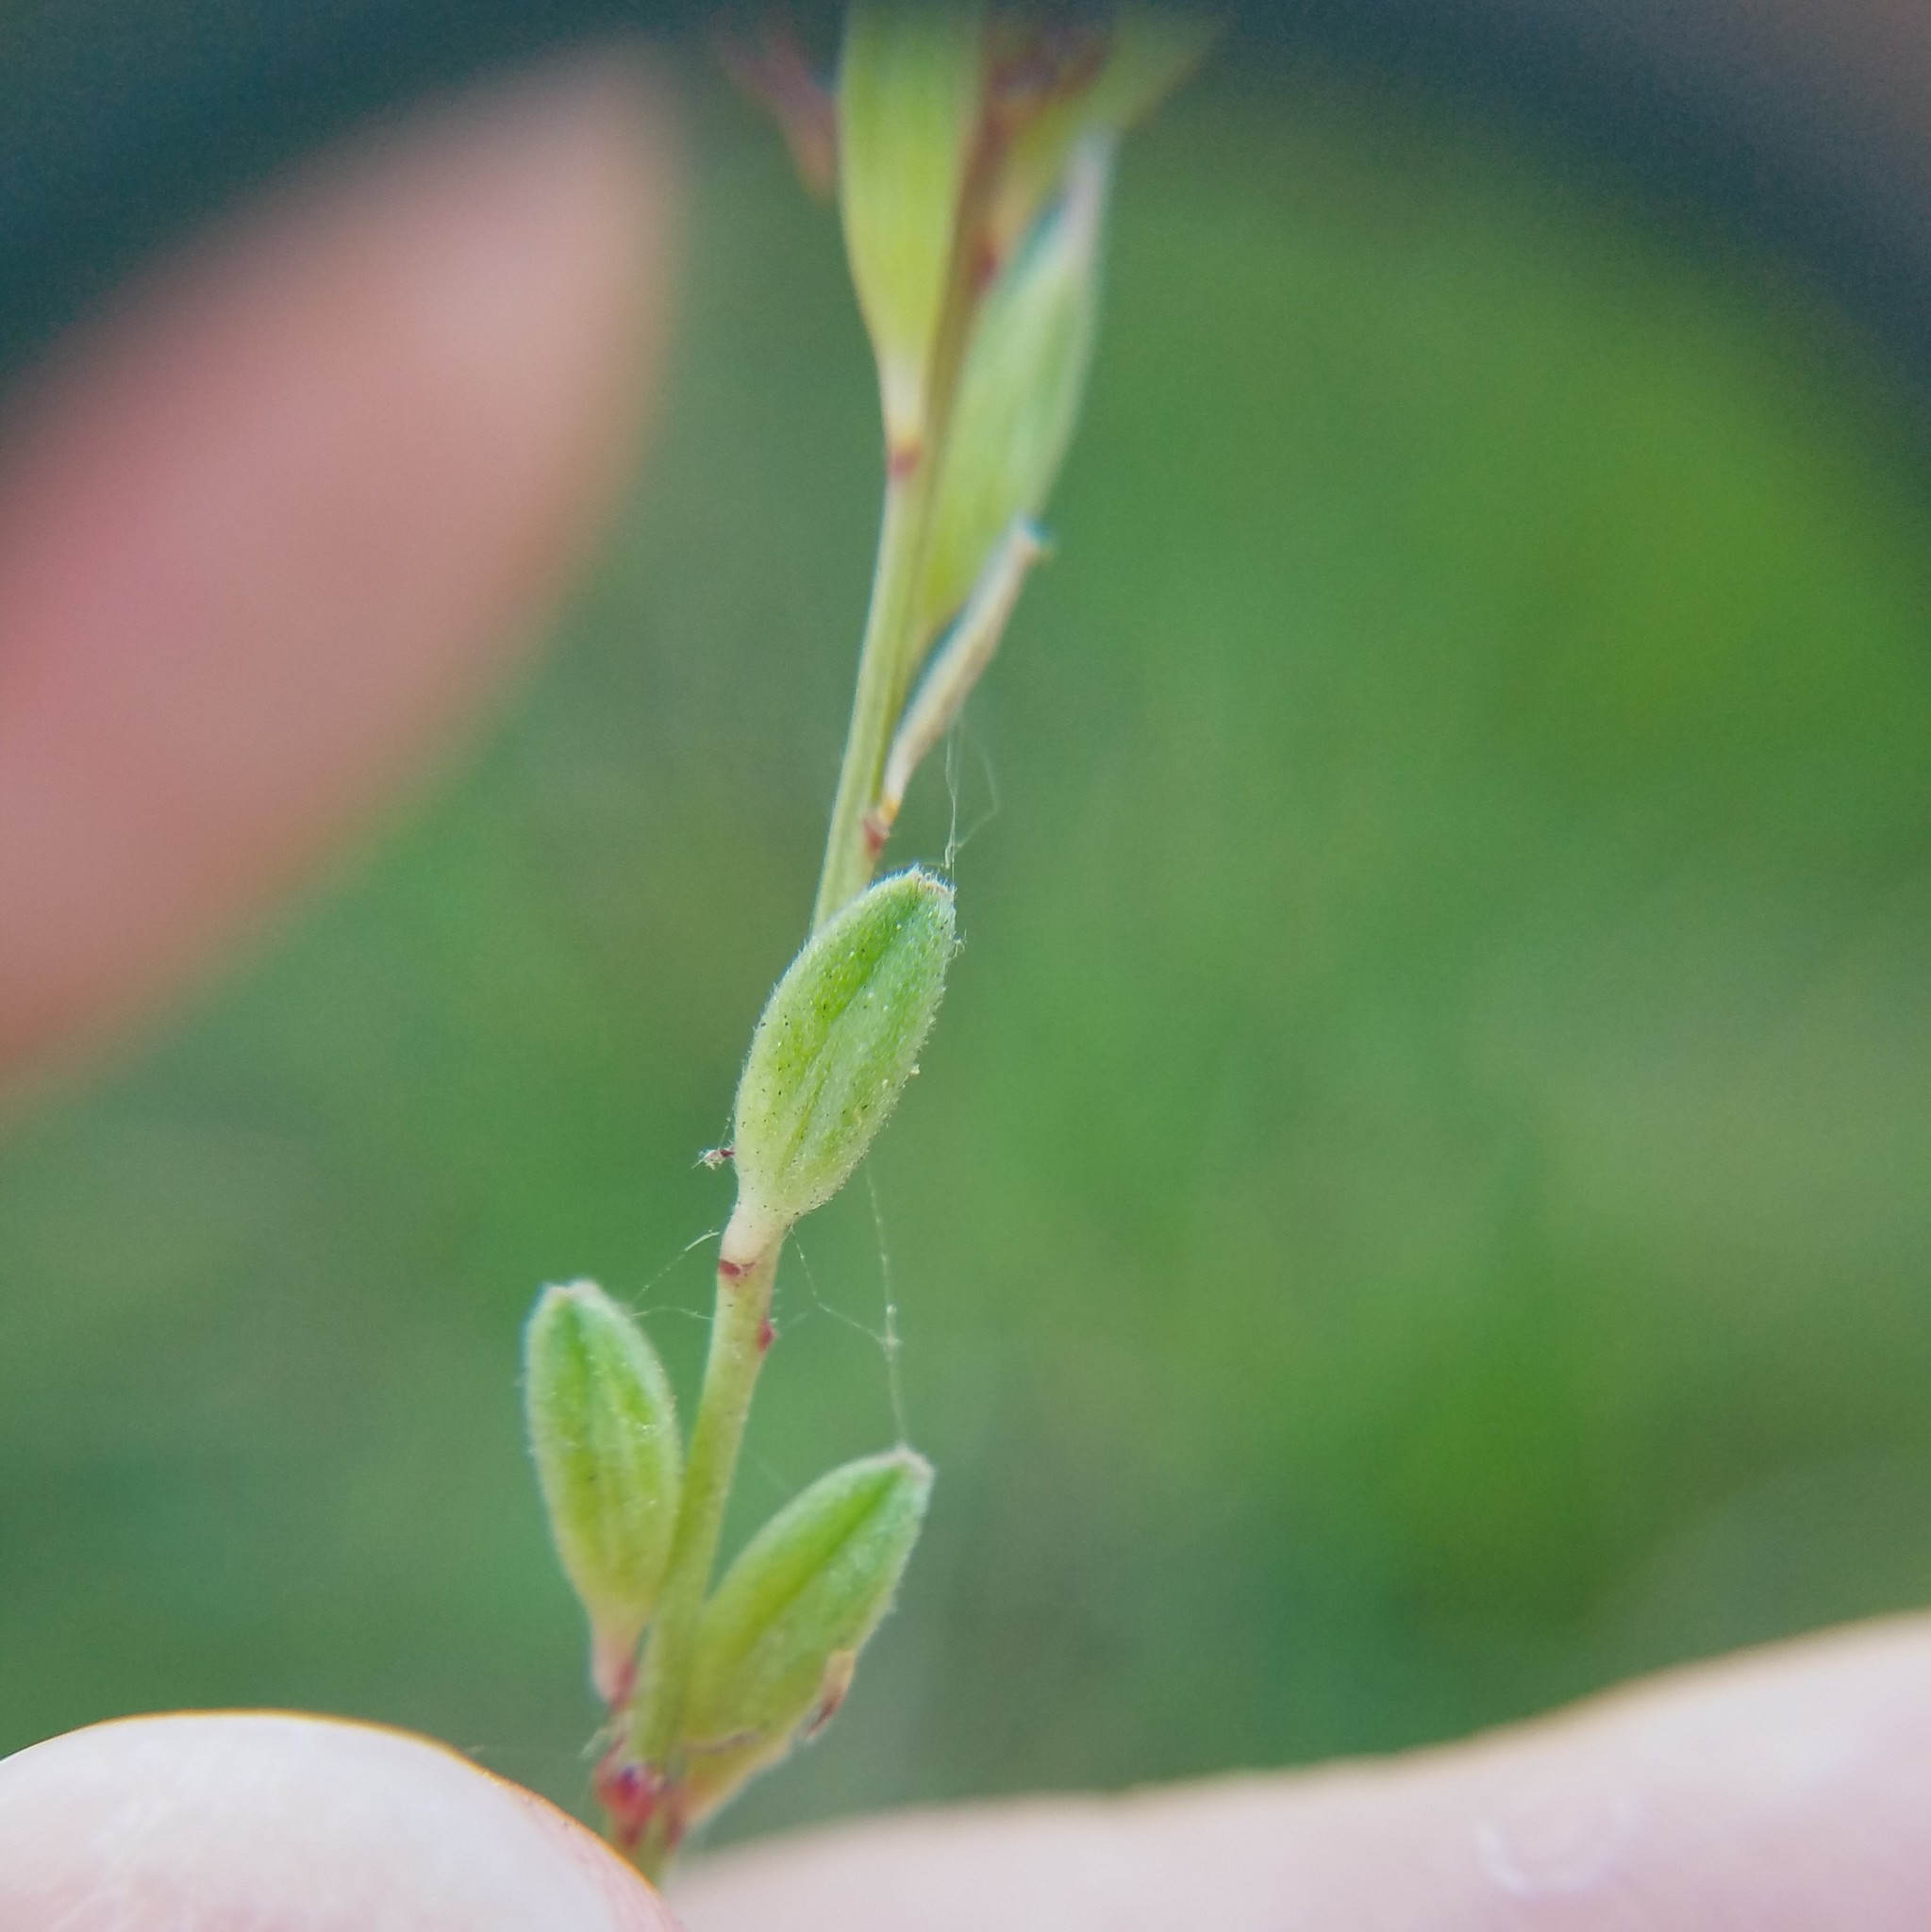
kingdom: Plantae
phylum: Tracheophyta
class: Magnoliopsida
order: Myrtales
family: Onagraceae
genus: Oenothera
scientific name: Oenothera simulans
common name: Southern beeblossom
